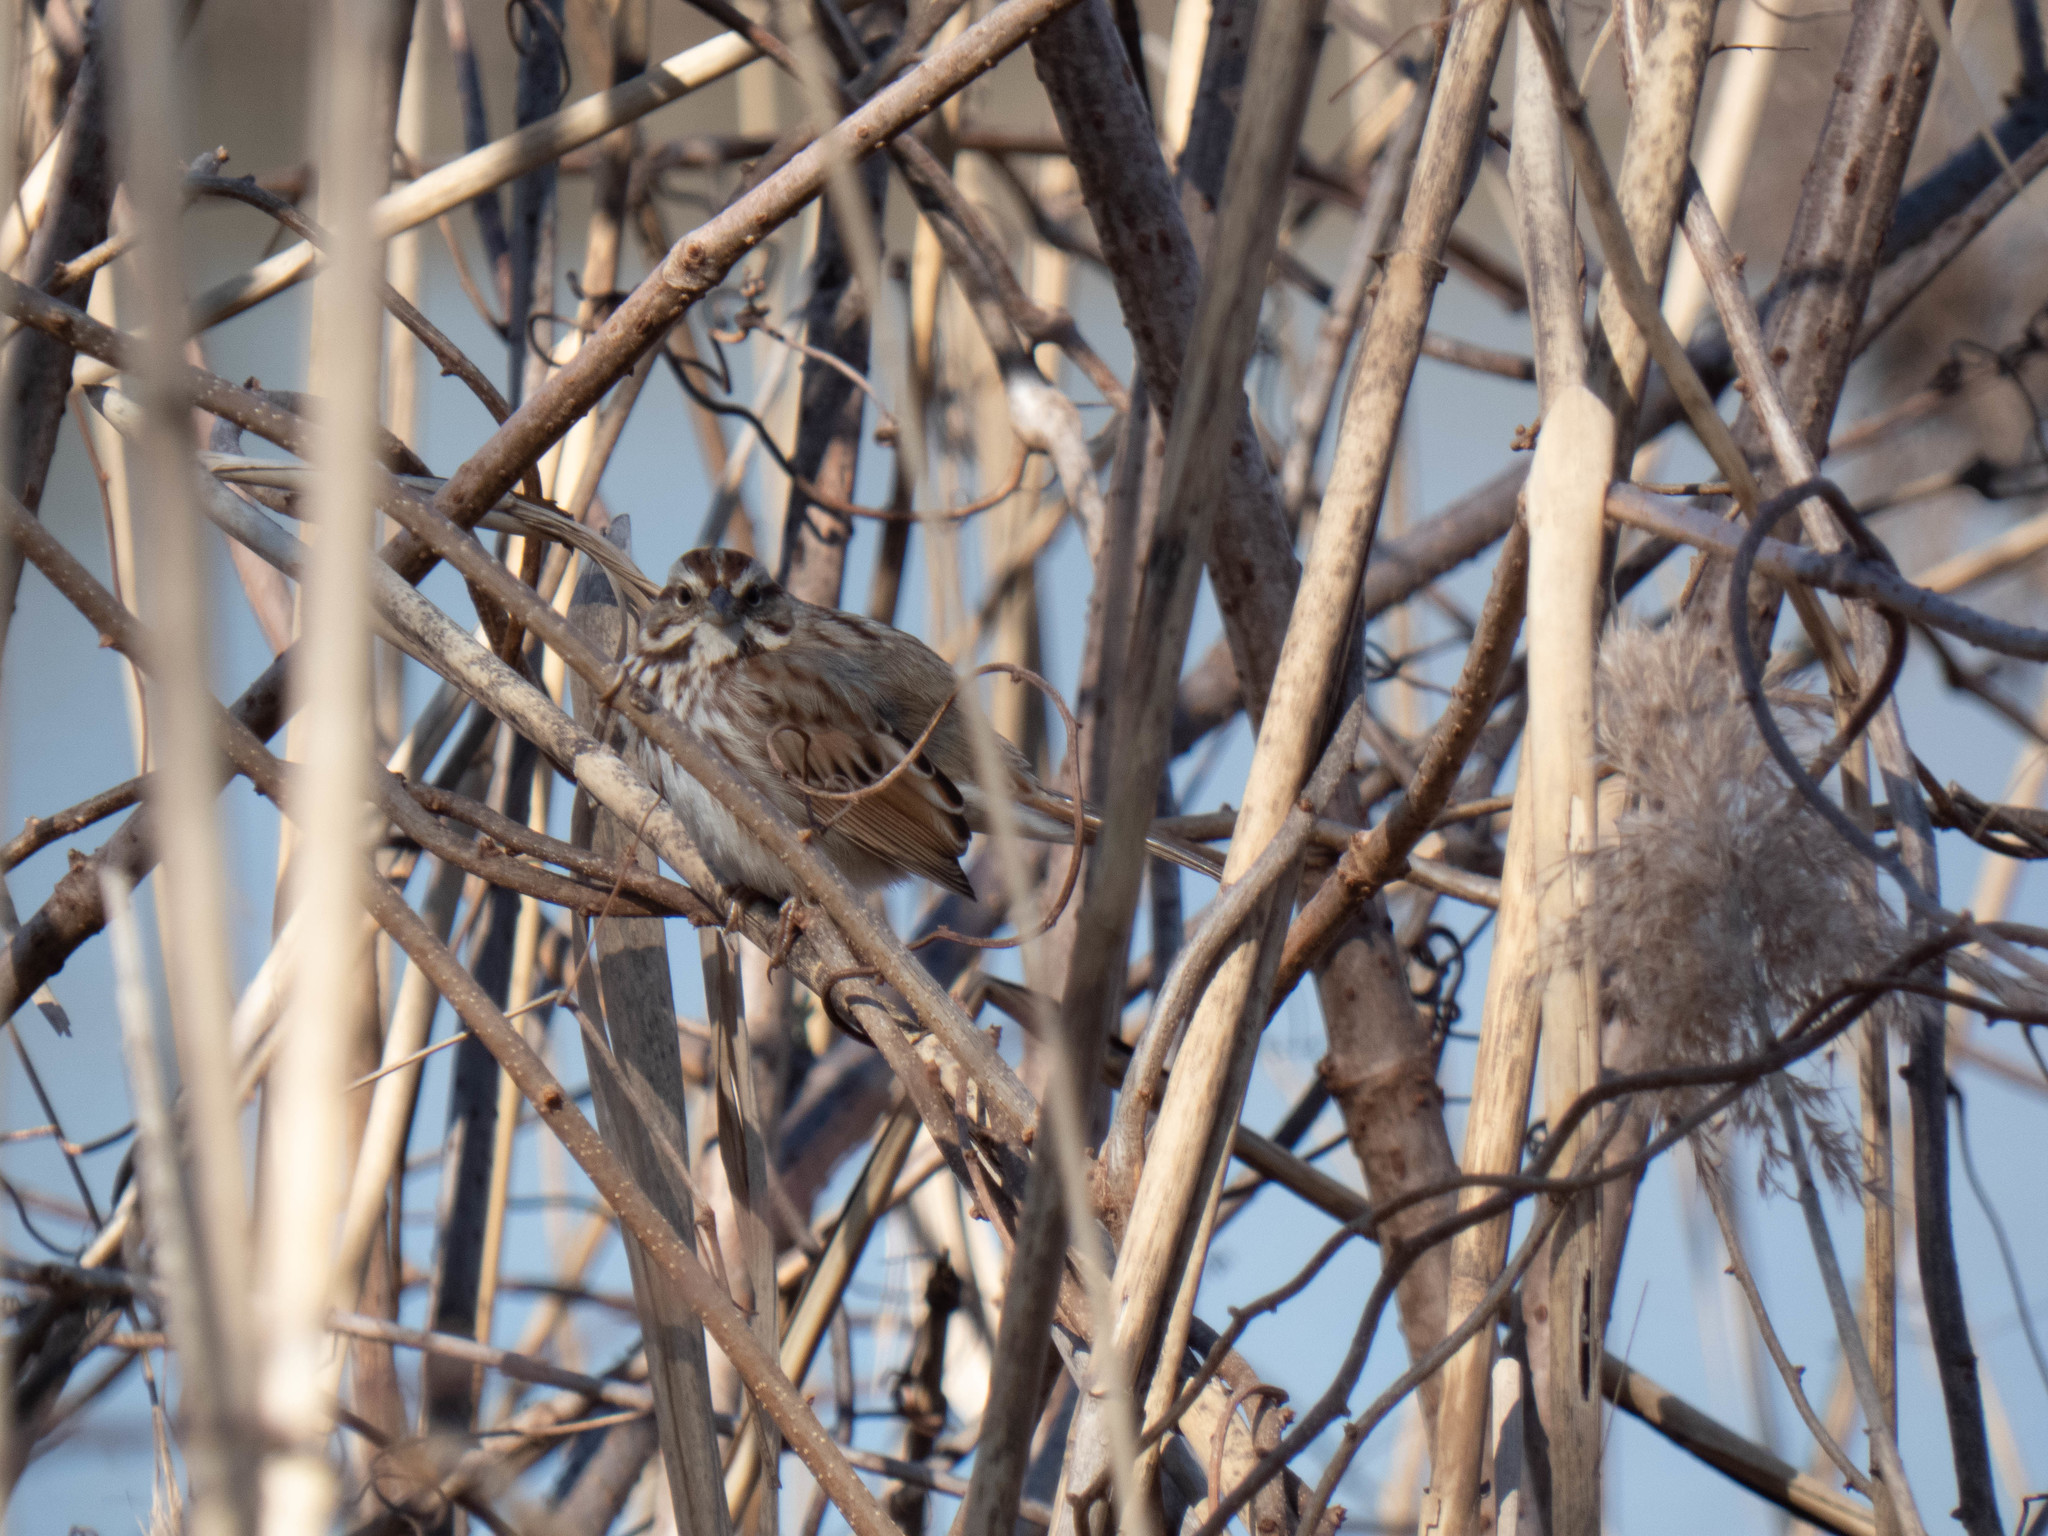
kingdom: Animalia
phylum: Chordata
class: Aves
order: Passeriformes
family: Passerellidae
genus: Melospiza
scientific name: Melospiza melodia
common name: Song sparrow
